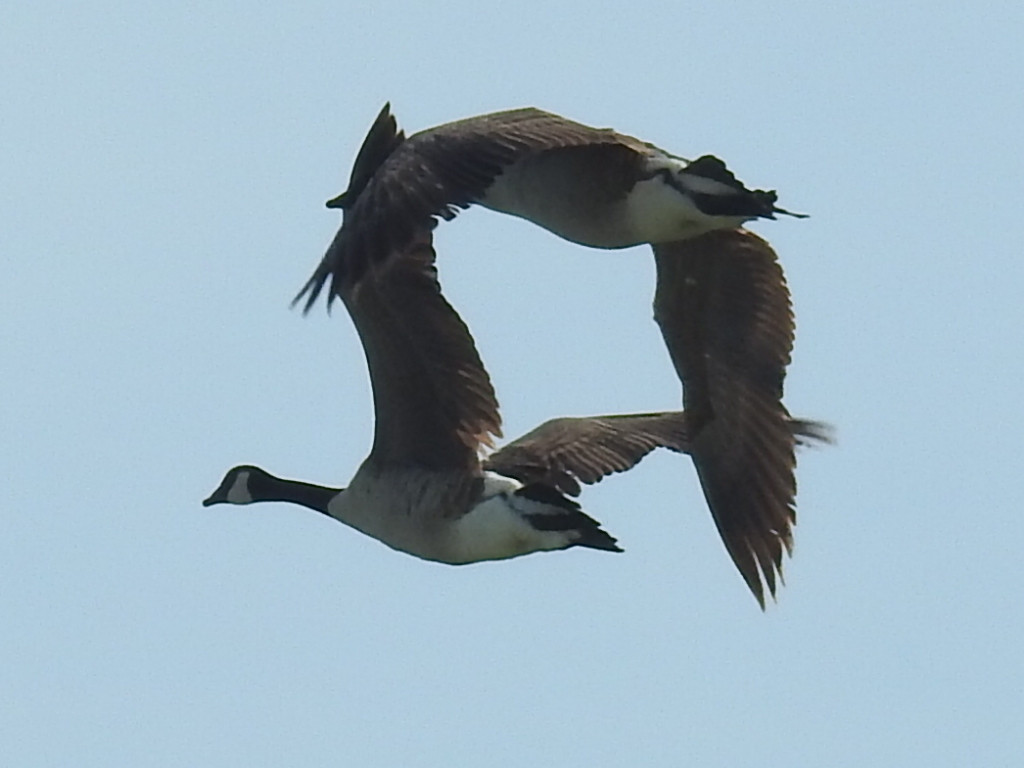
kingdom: Animalia
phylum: Chordata
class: Aves
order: Anseriformes
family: Anatidae
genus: Branta
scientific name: Branta canadensis
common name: Canada goose
